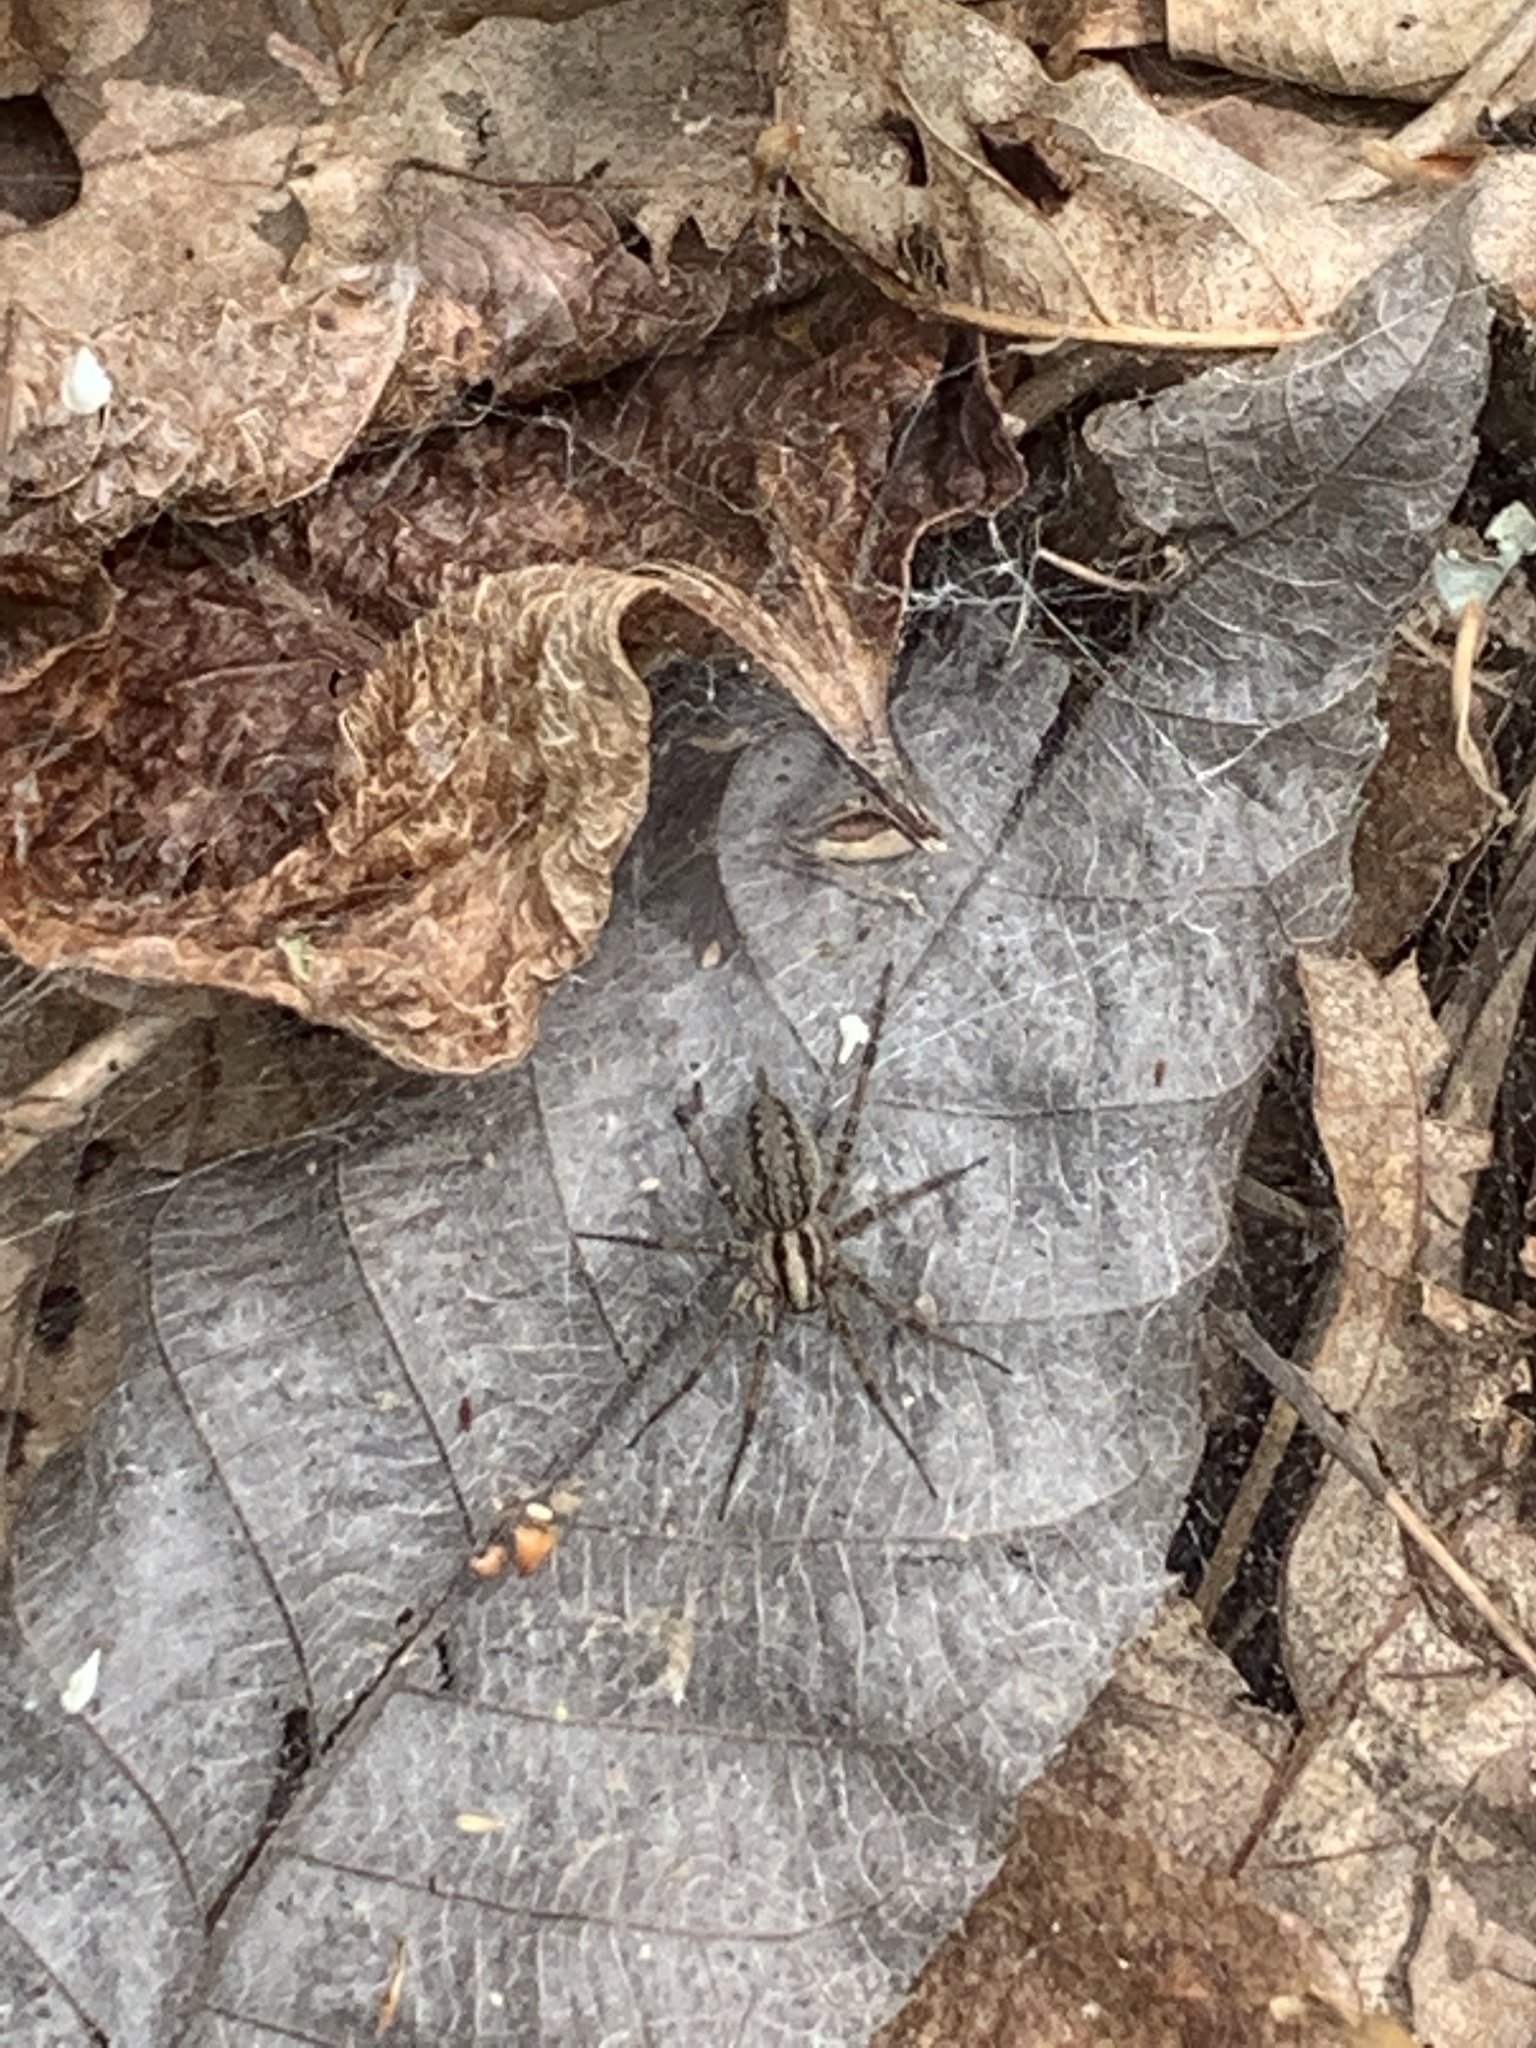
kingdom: Animalia
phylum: Arthropoda
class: Arachnida
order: Araneae
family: Agelenidae
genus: Agelenopsis
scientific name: Agelenopsis
